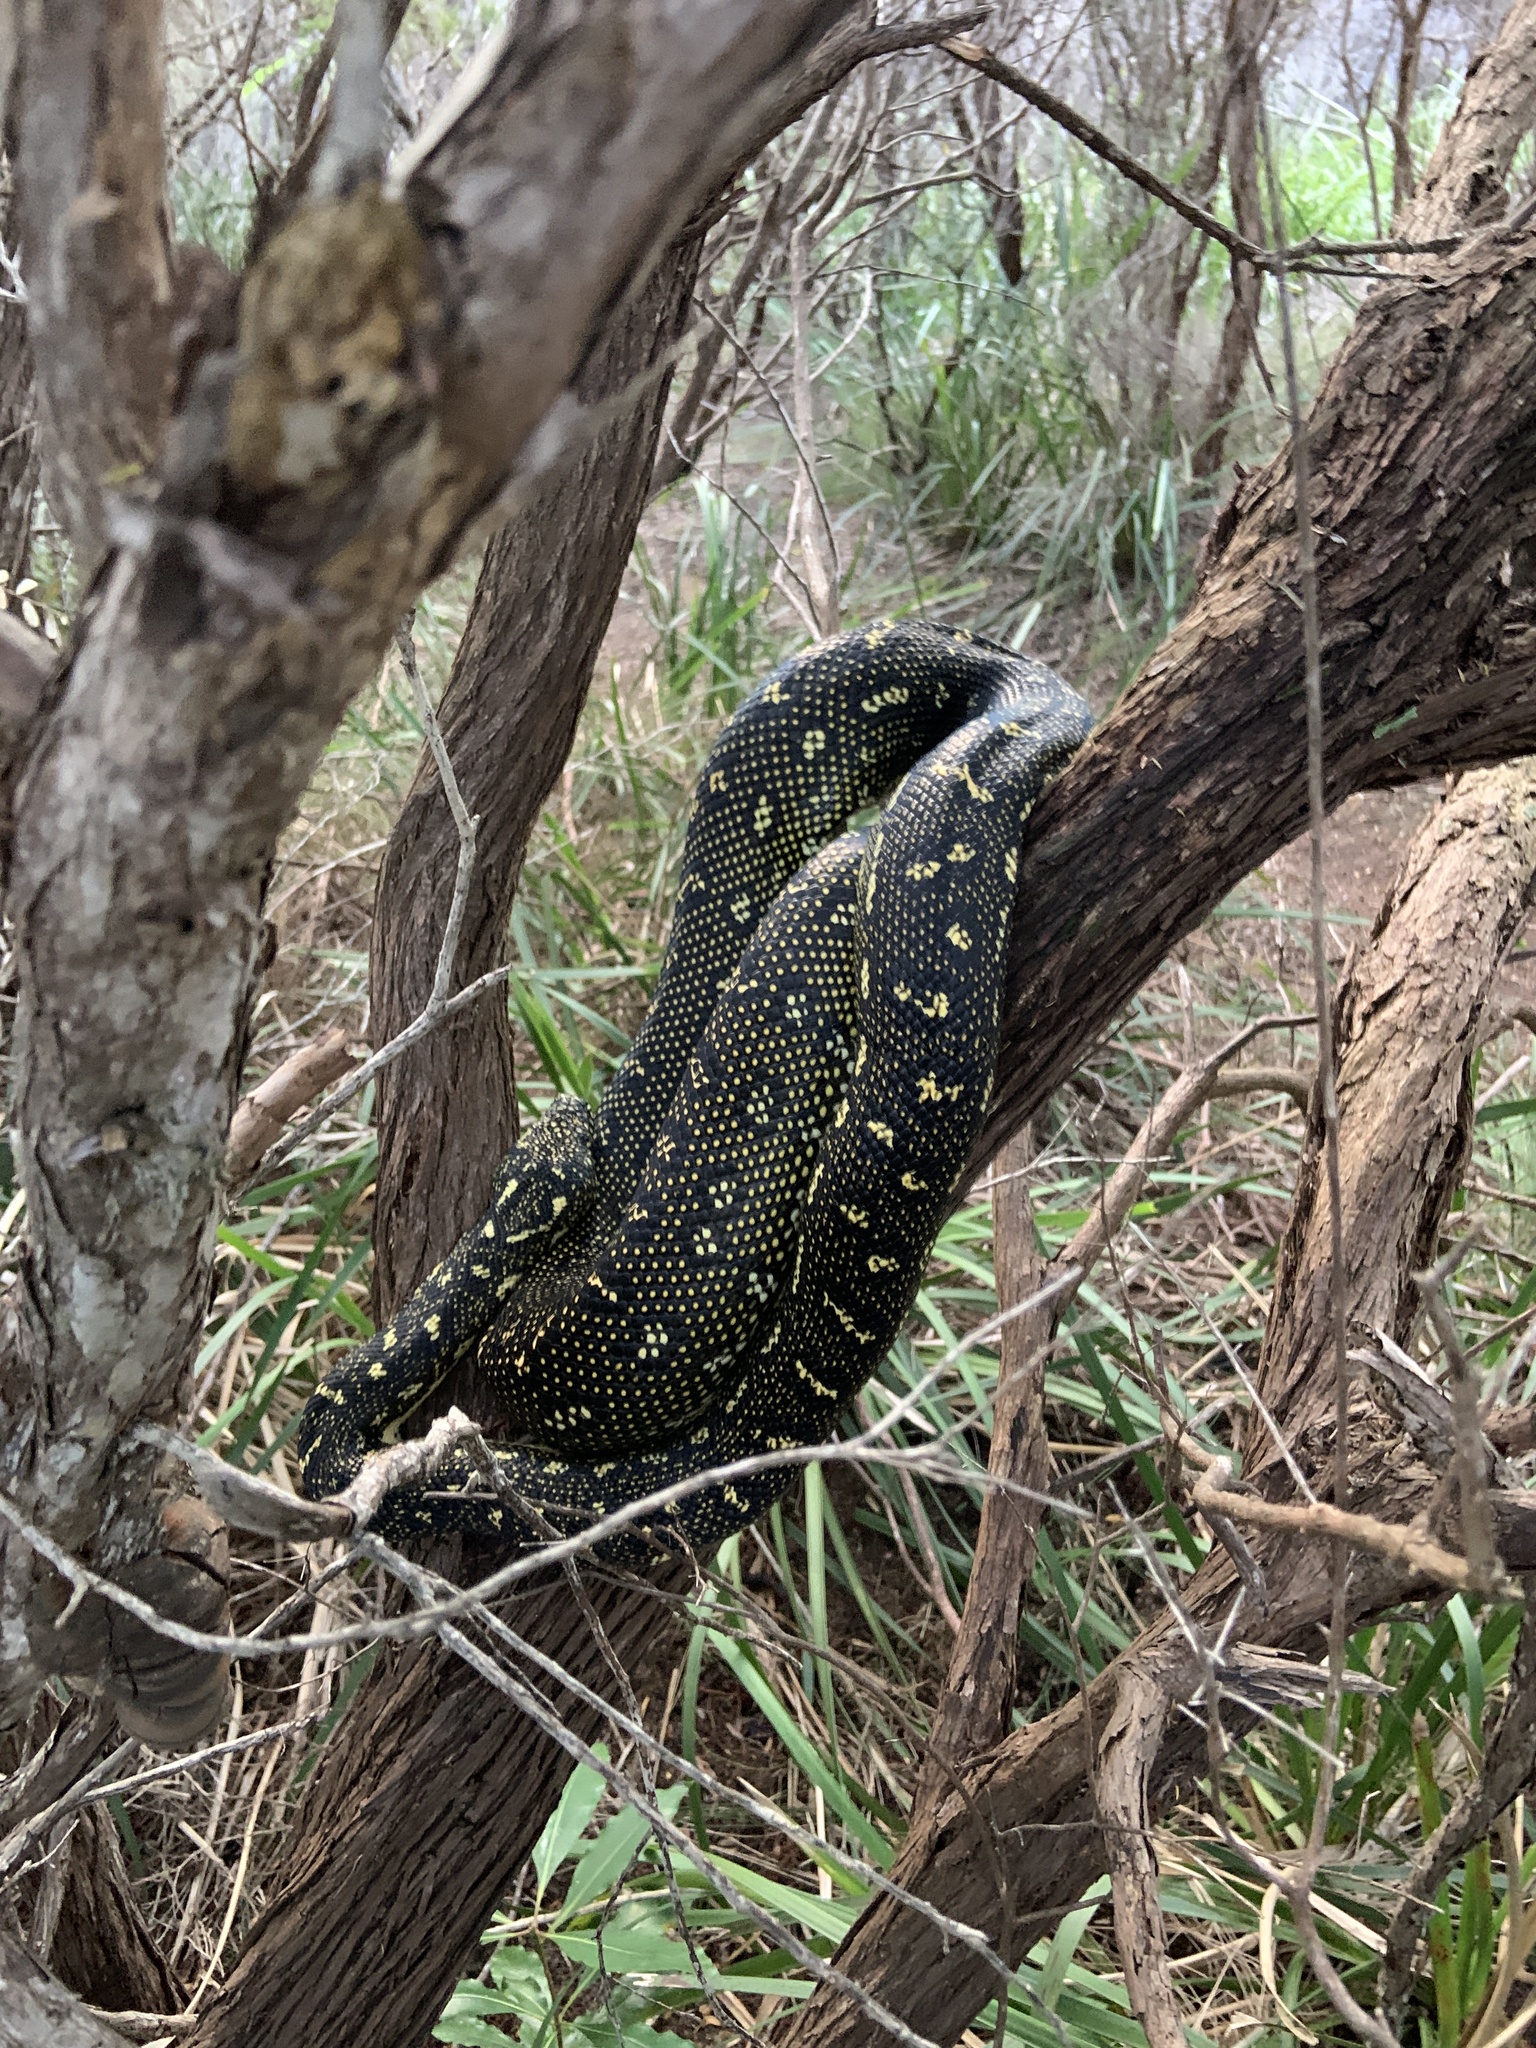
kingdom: Animalia
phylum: Chordata
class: Squamata
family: Pythonidae
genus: Morelia
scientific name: Morelia spilota
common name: Carpet python
